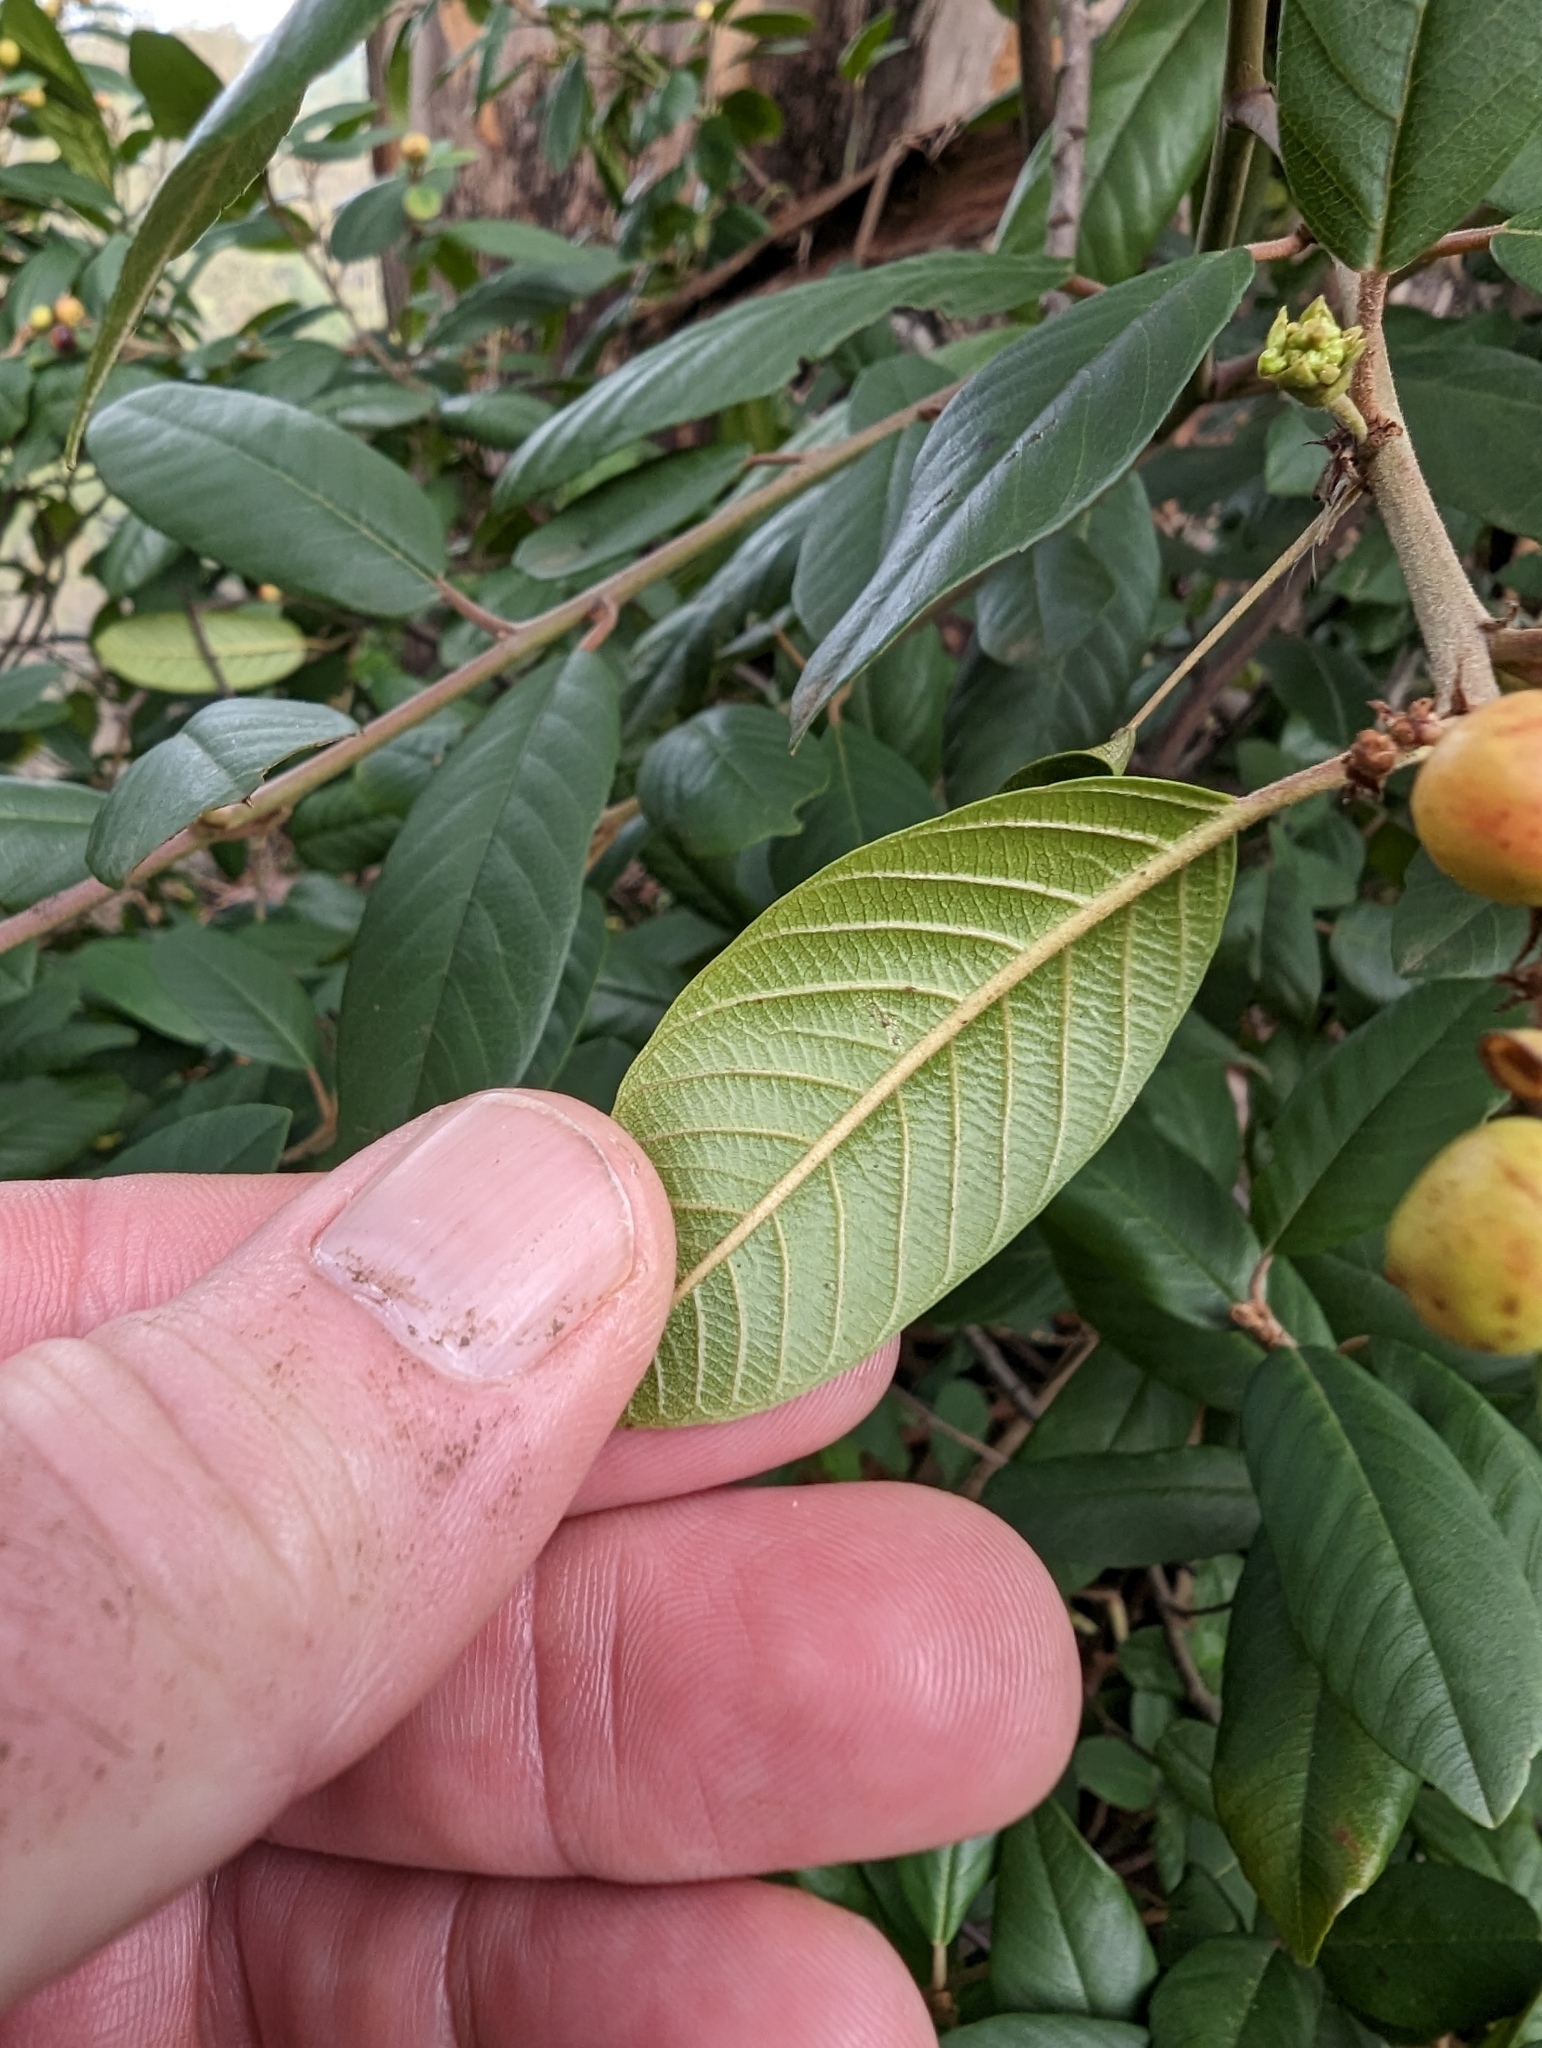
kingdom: Plantae
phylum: Tracheophyta
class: Magnoliopsida
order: Rosales
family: Rhamnaceae
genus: Frangula
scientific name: Frangula californica
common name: California buckthorn
